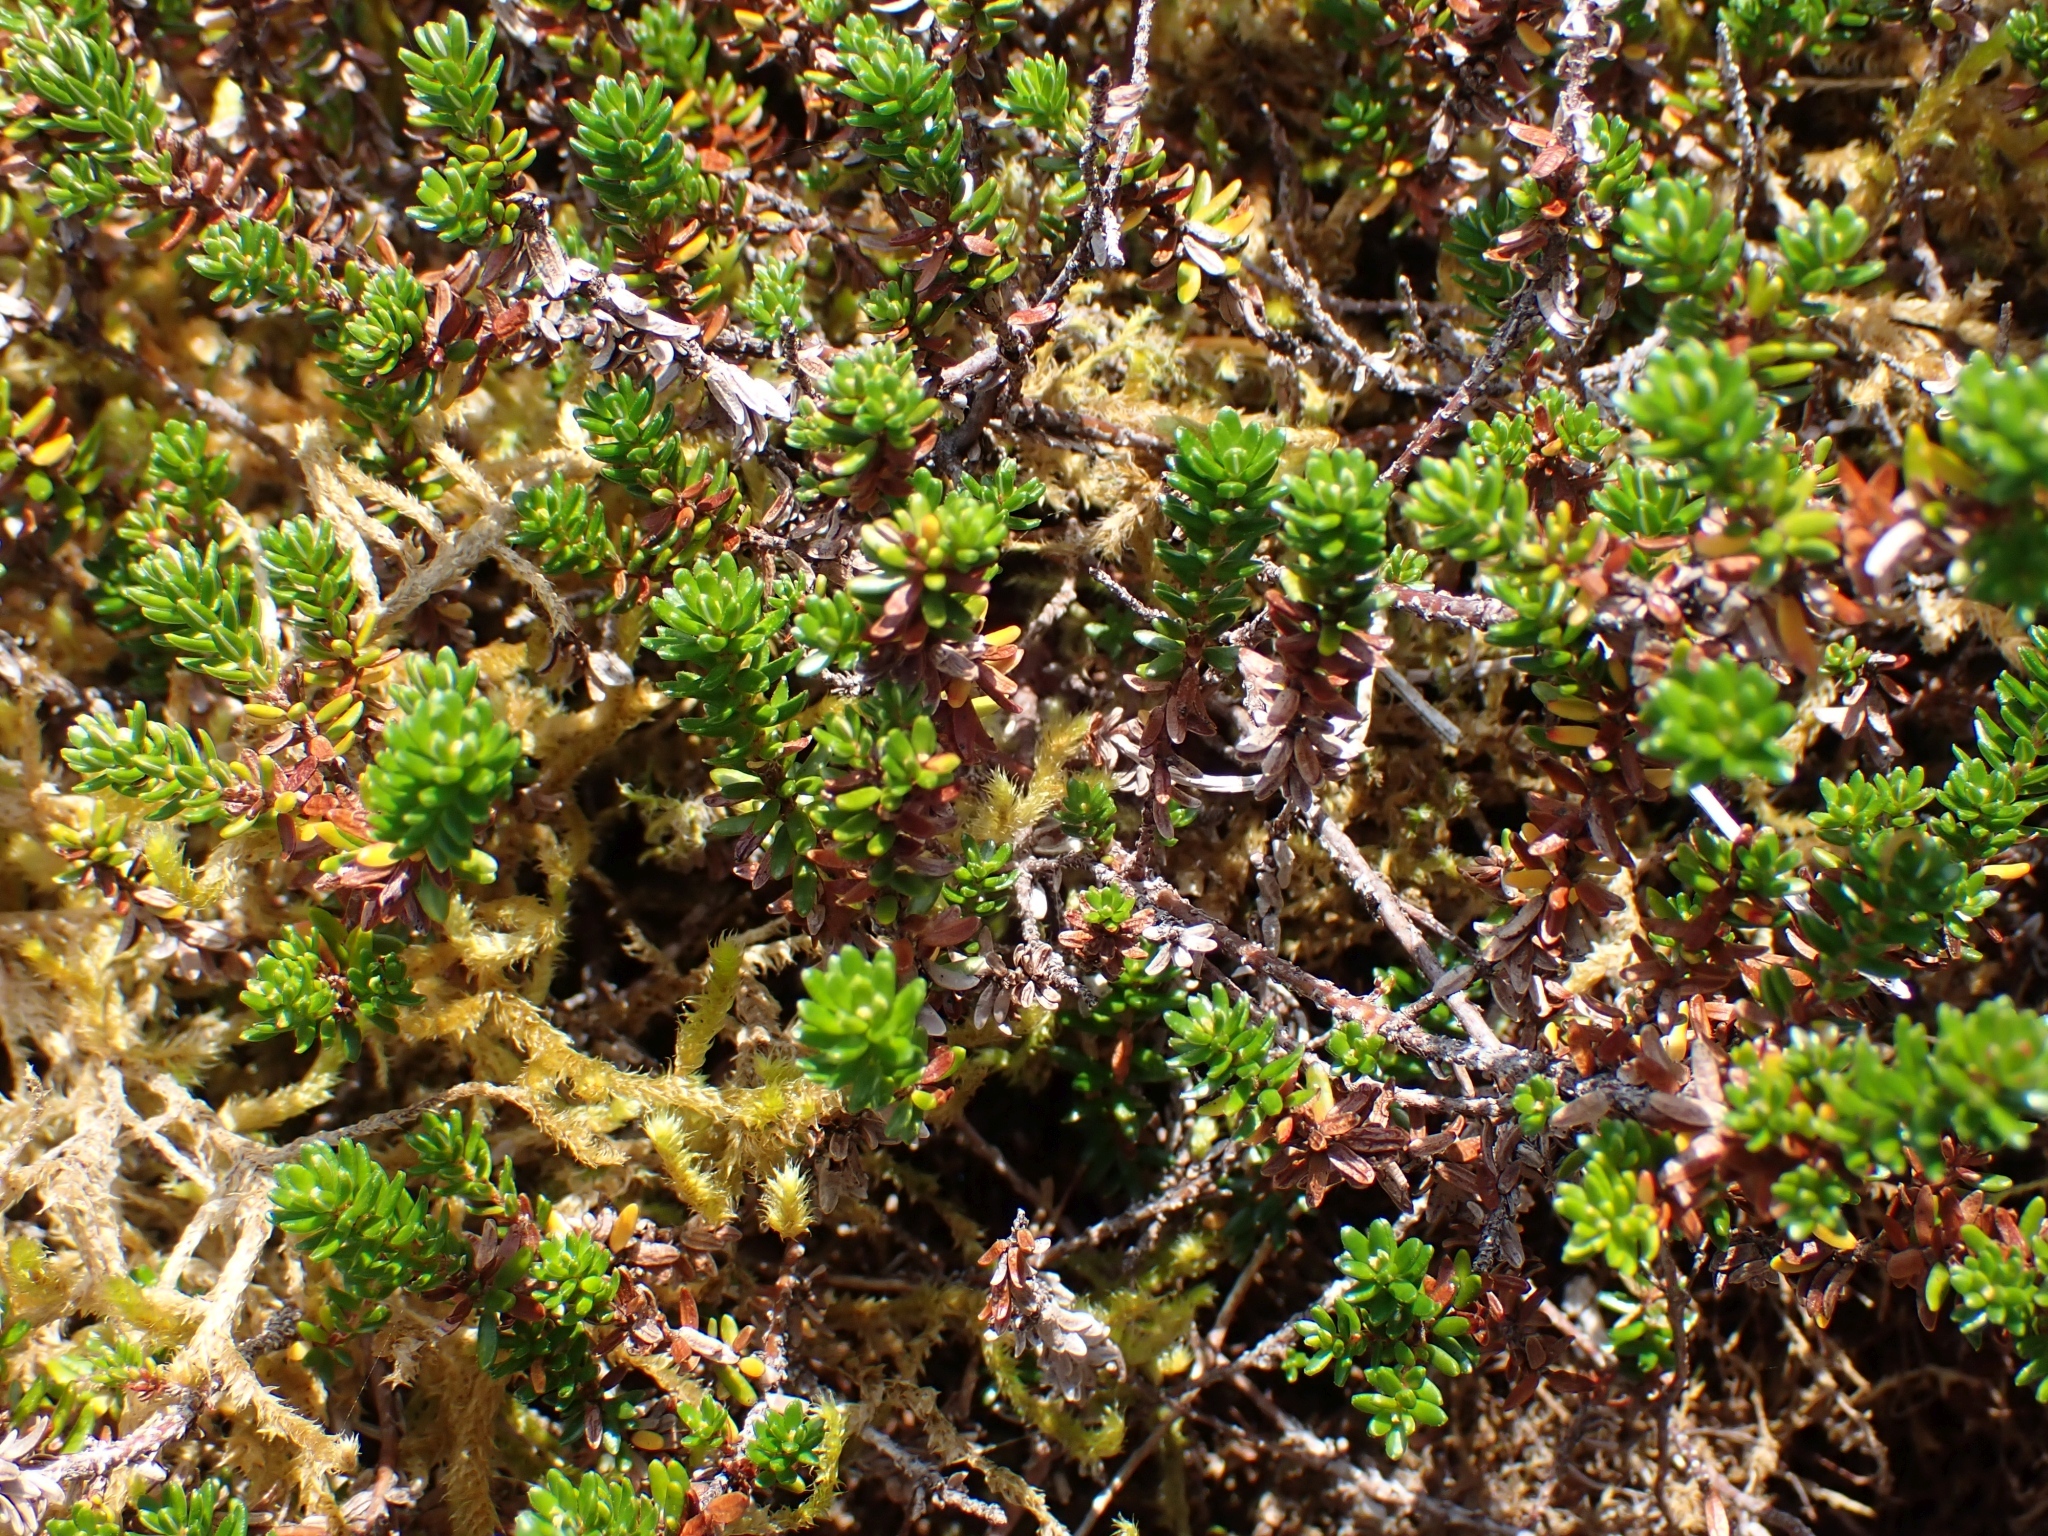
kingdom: Plantae
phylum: Tracheophyta
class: Magnoliopsida
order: Ericales
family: Ericaceae
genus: Empetrum
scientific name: Empetrum nigrum
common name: Black crowberry
